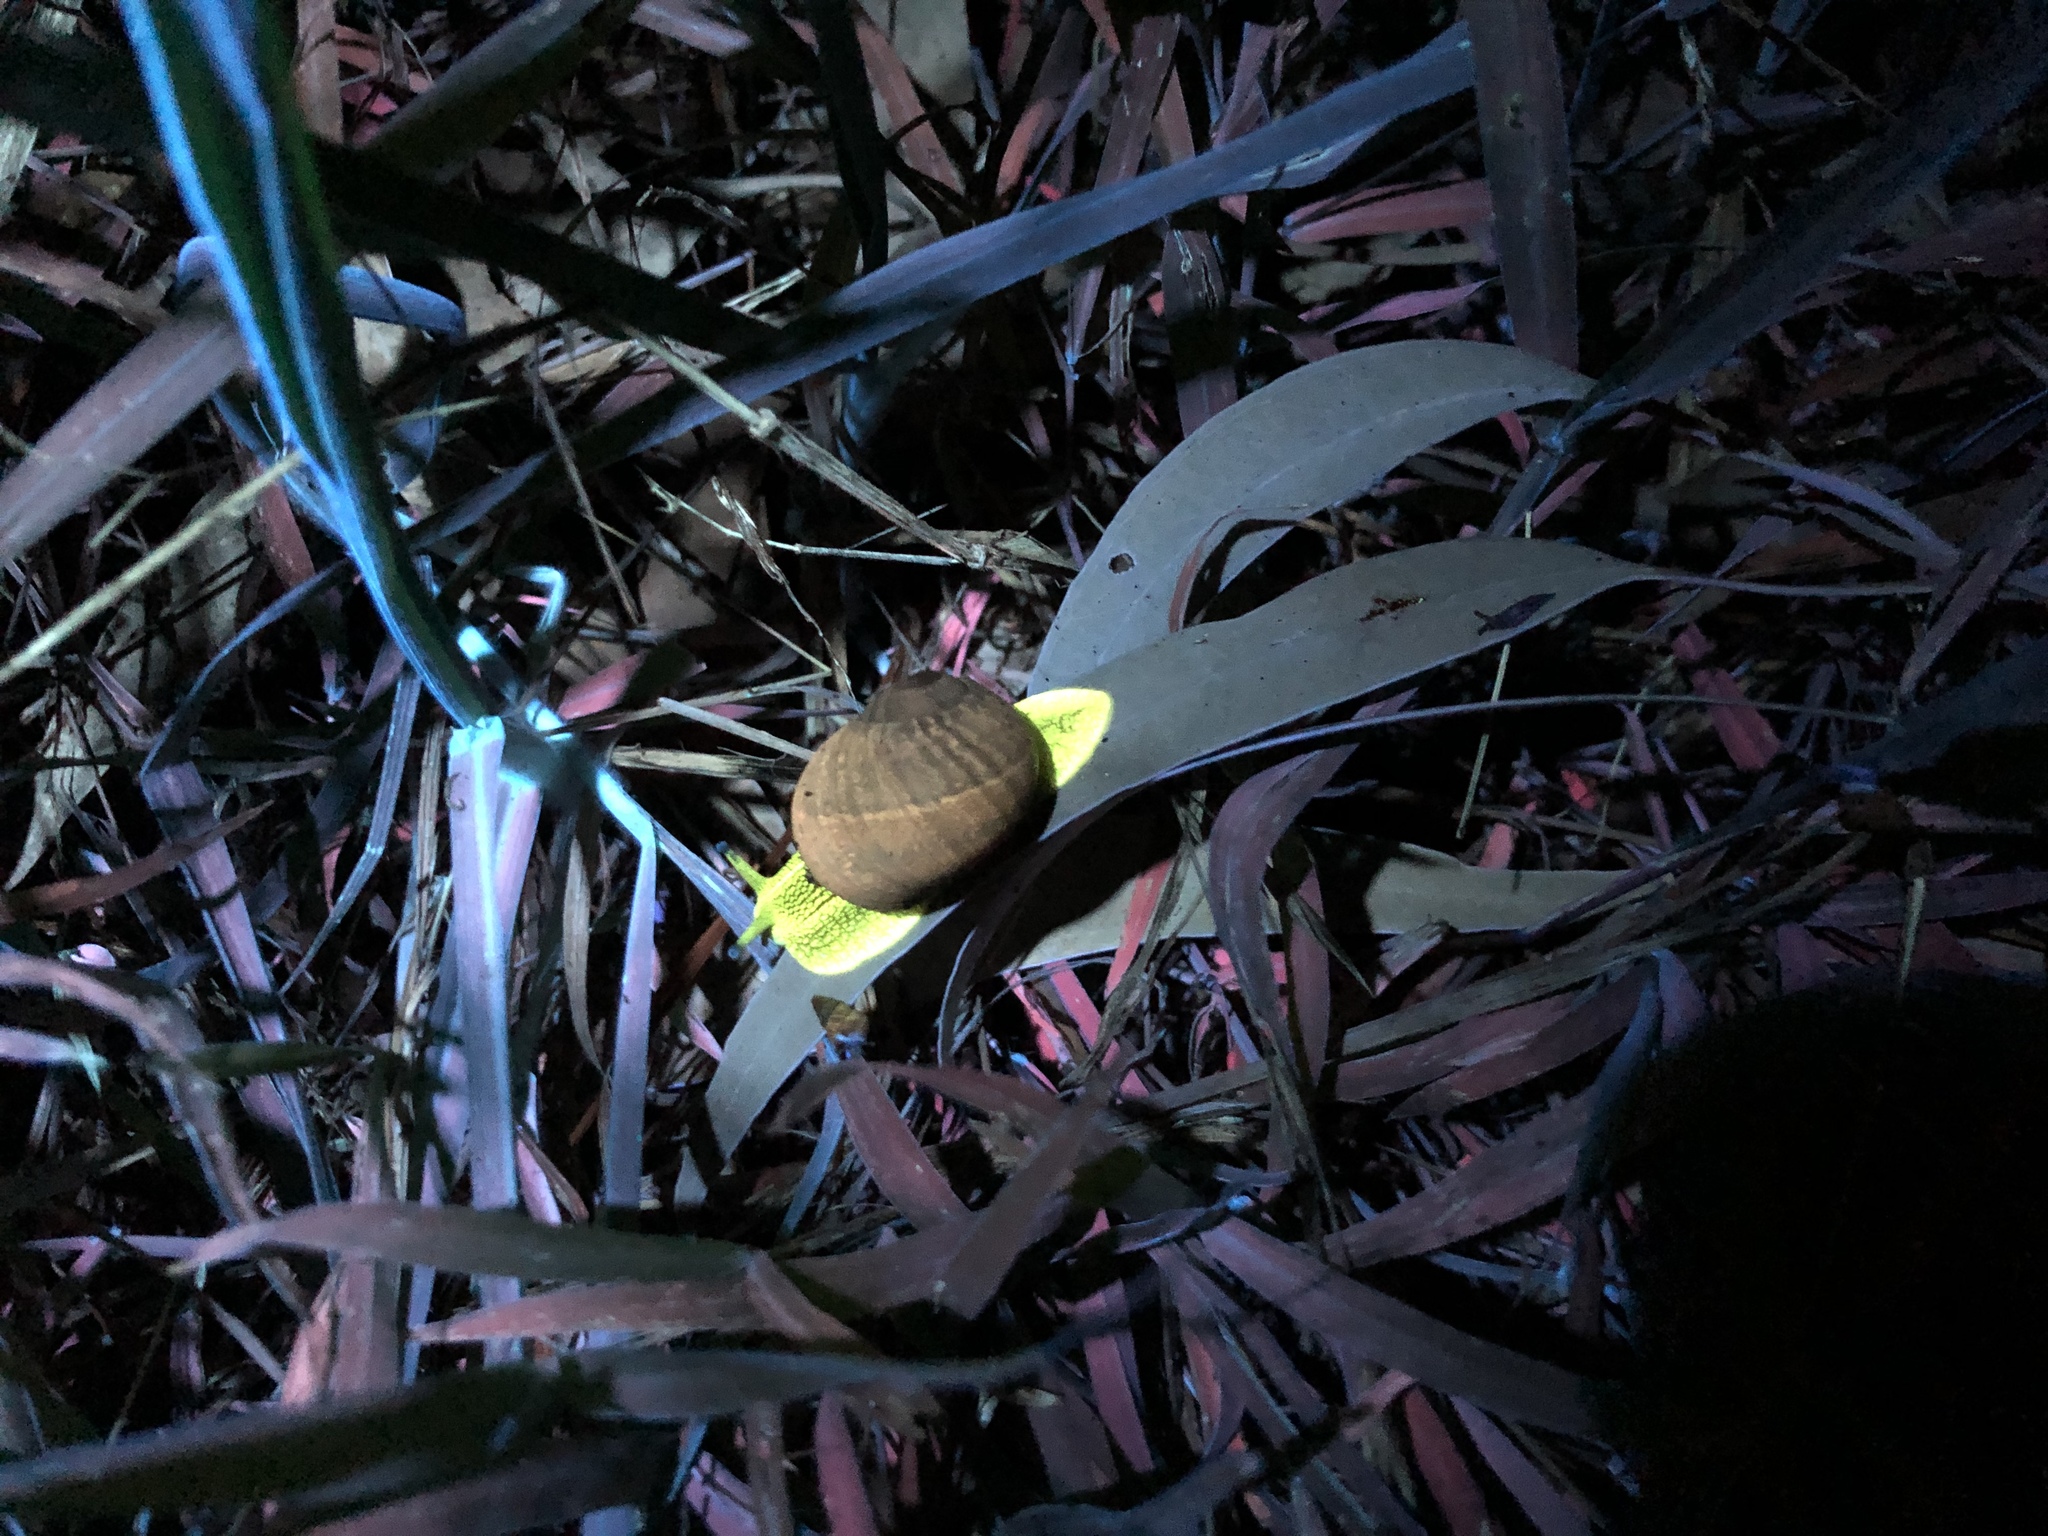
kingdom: Animalia
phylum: Mollusca
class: Gastropoda
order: Stylommatophora
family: Helicidae
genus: Cornu
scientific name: Cornu aspersum
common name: Brown garden snail
